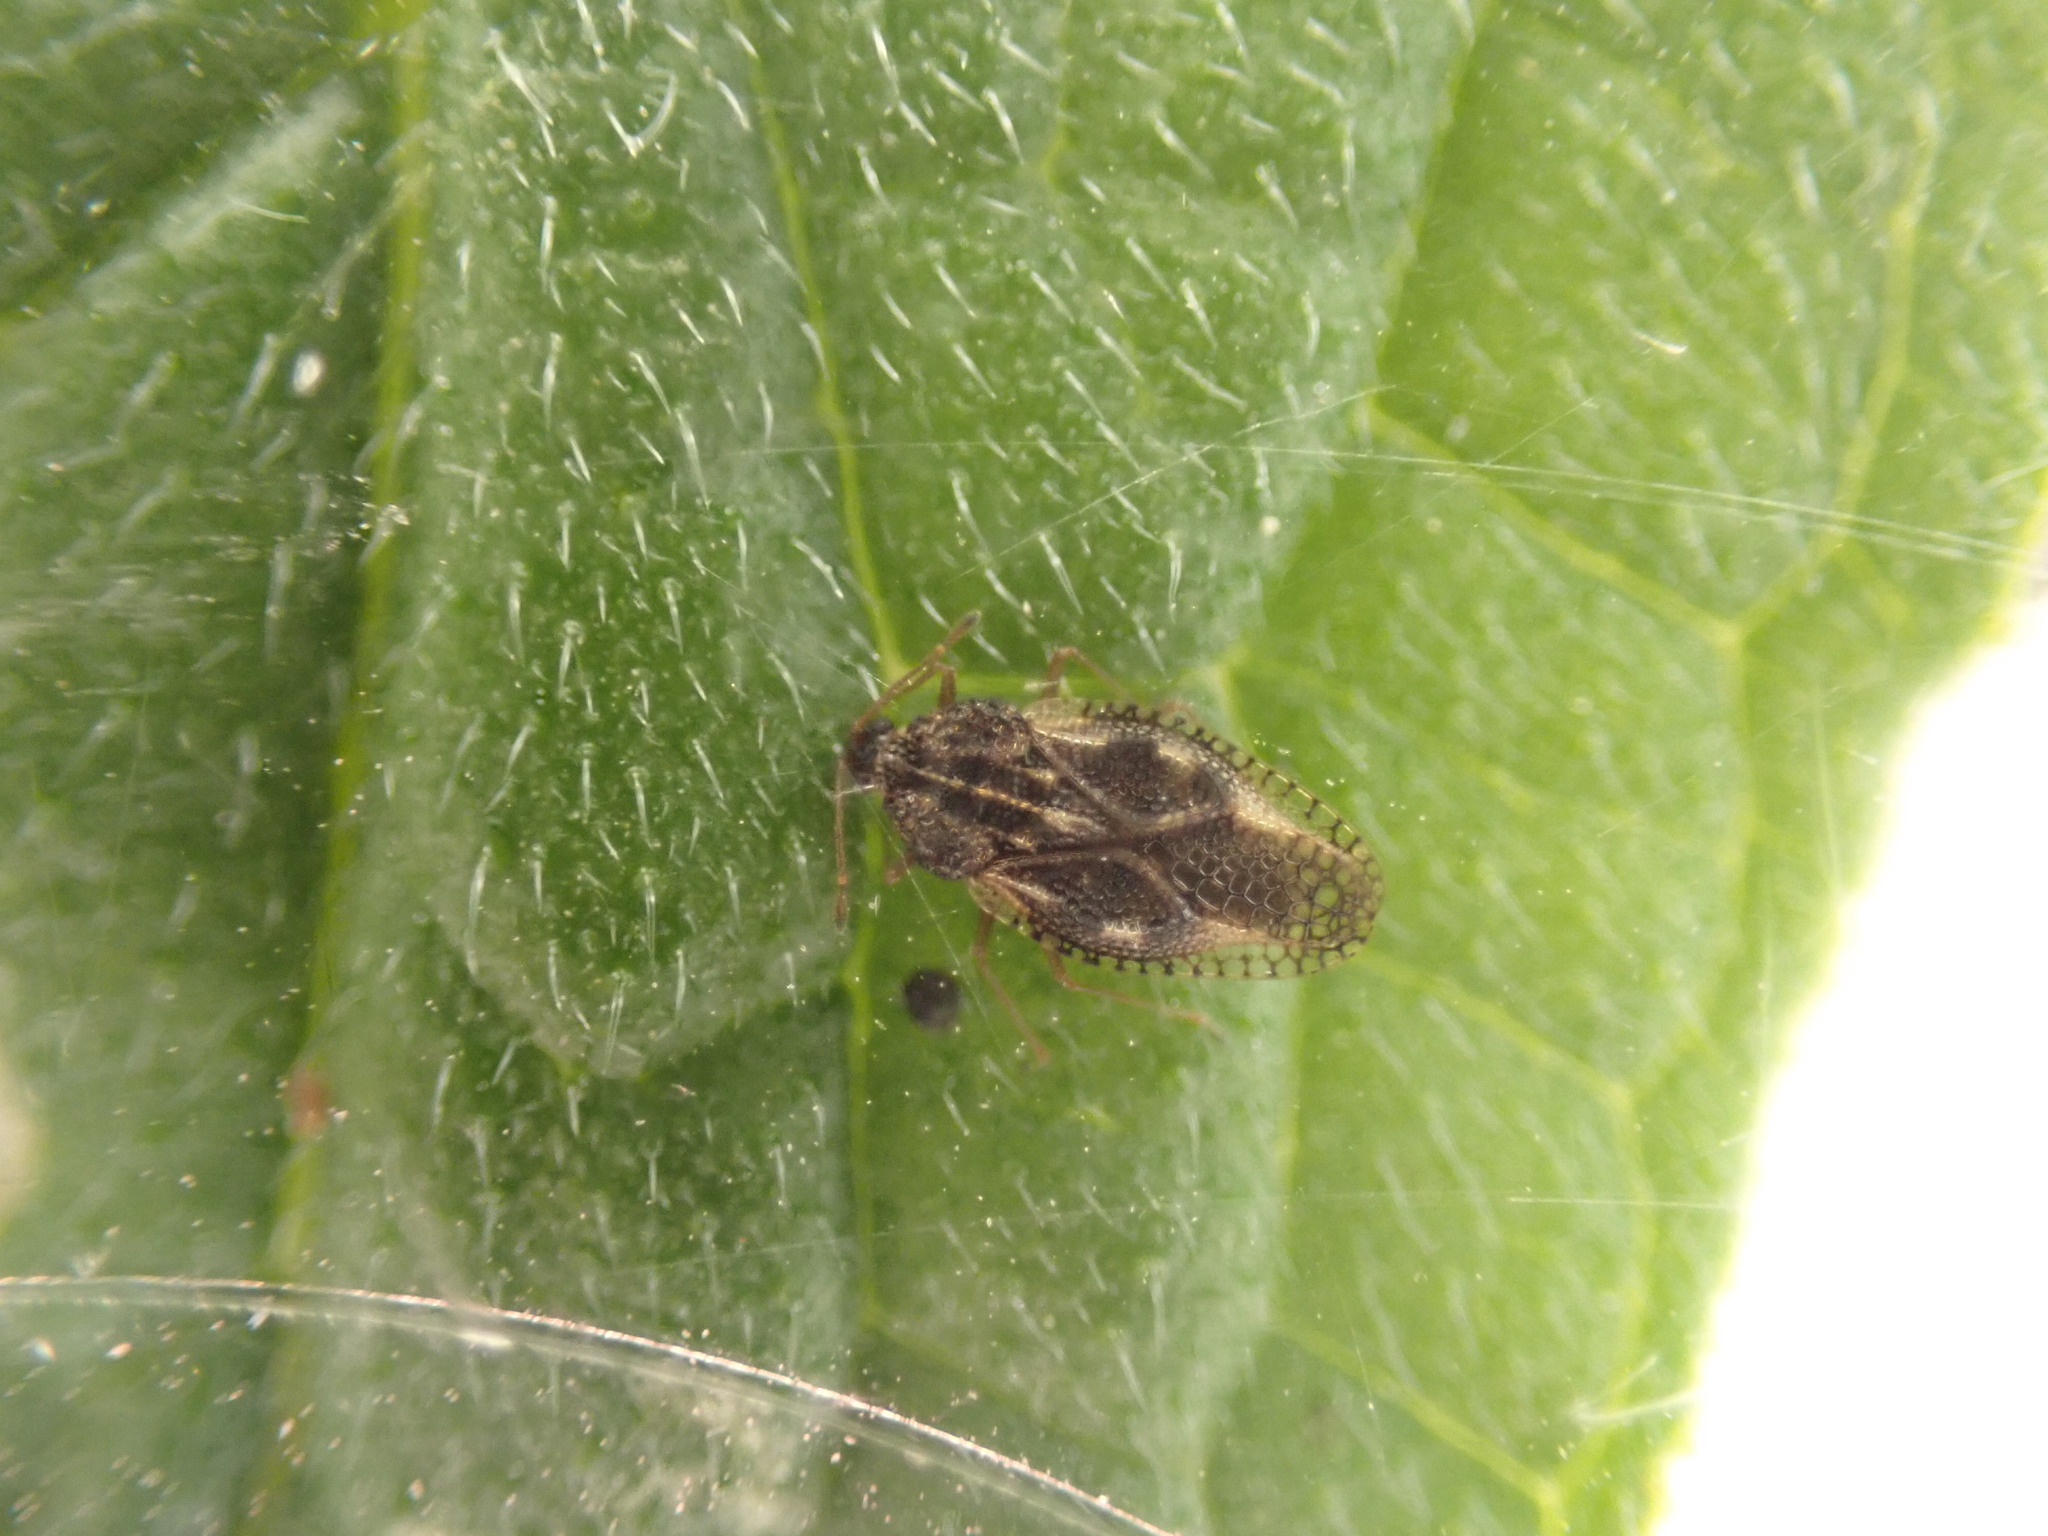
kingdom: Animalia
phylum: Arthropoda
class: Insecta
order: Hemiptera
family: Tingidae
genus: Dictyla
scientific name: Dictyla humuli
